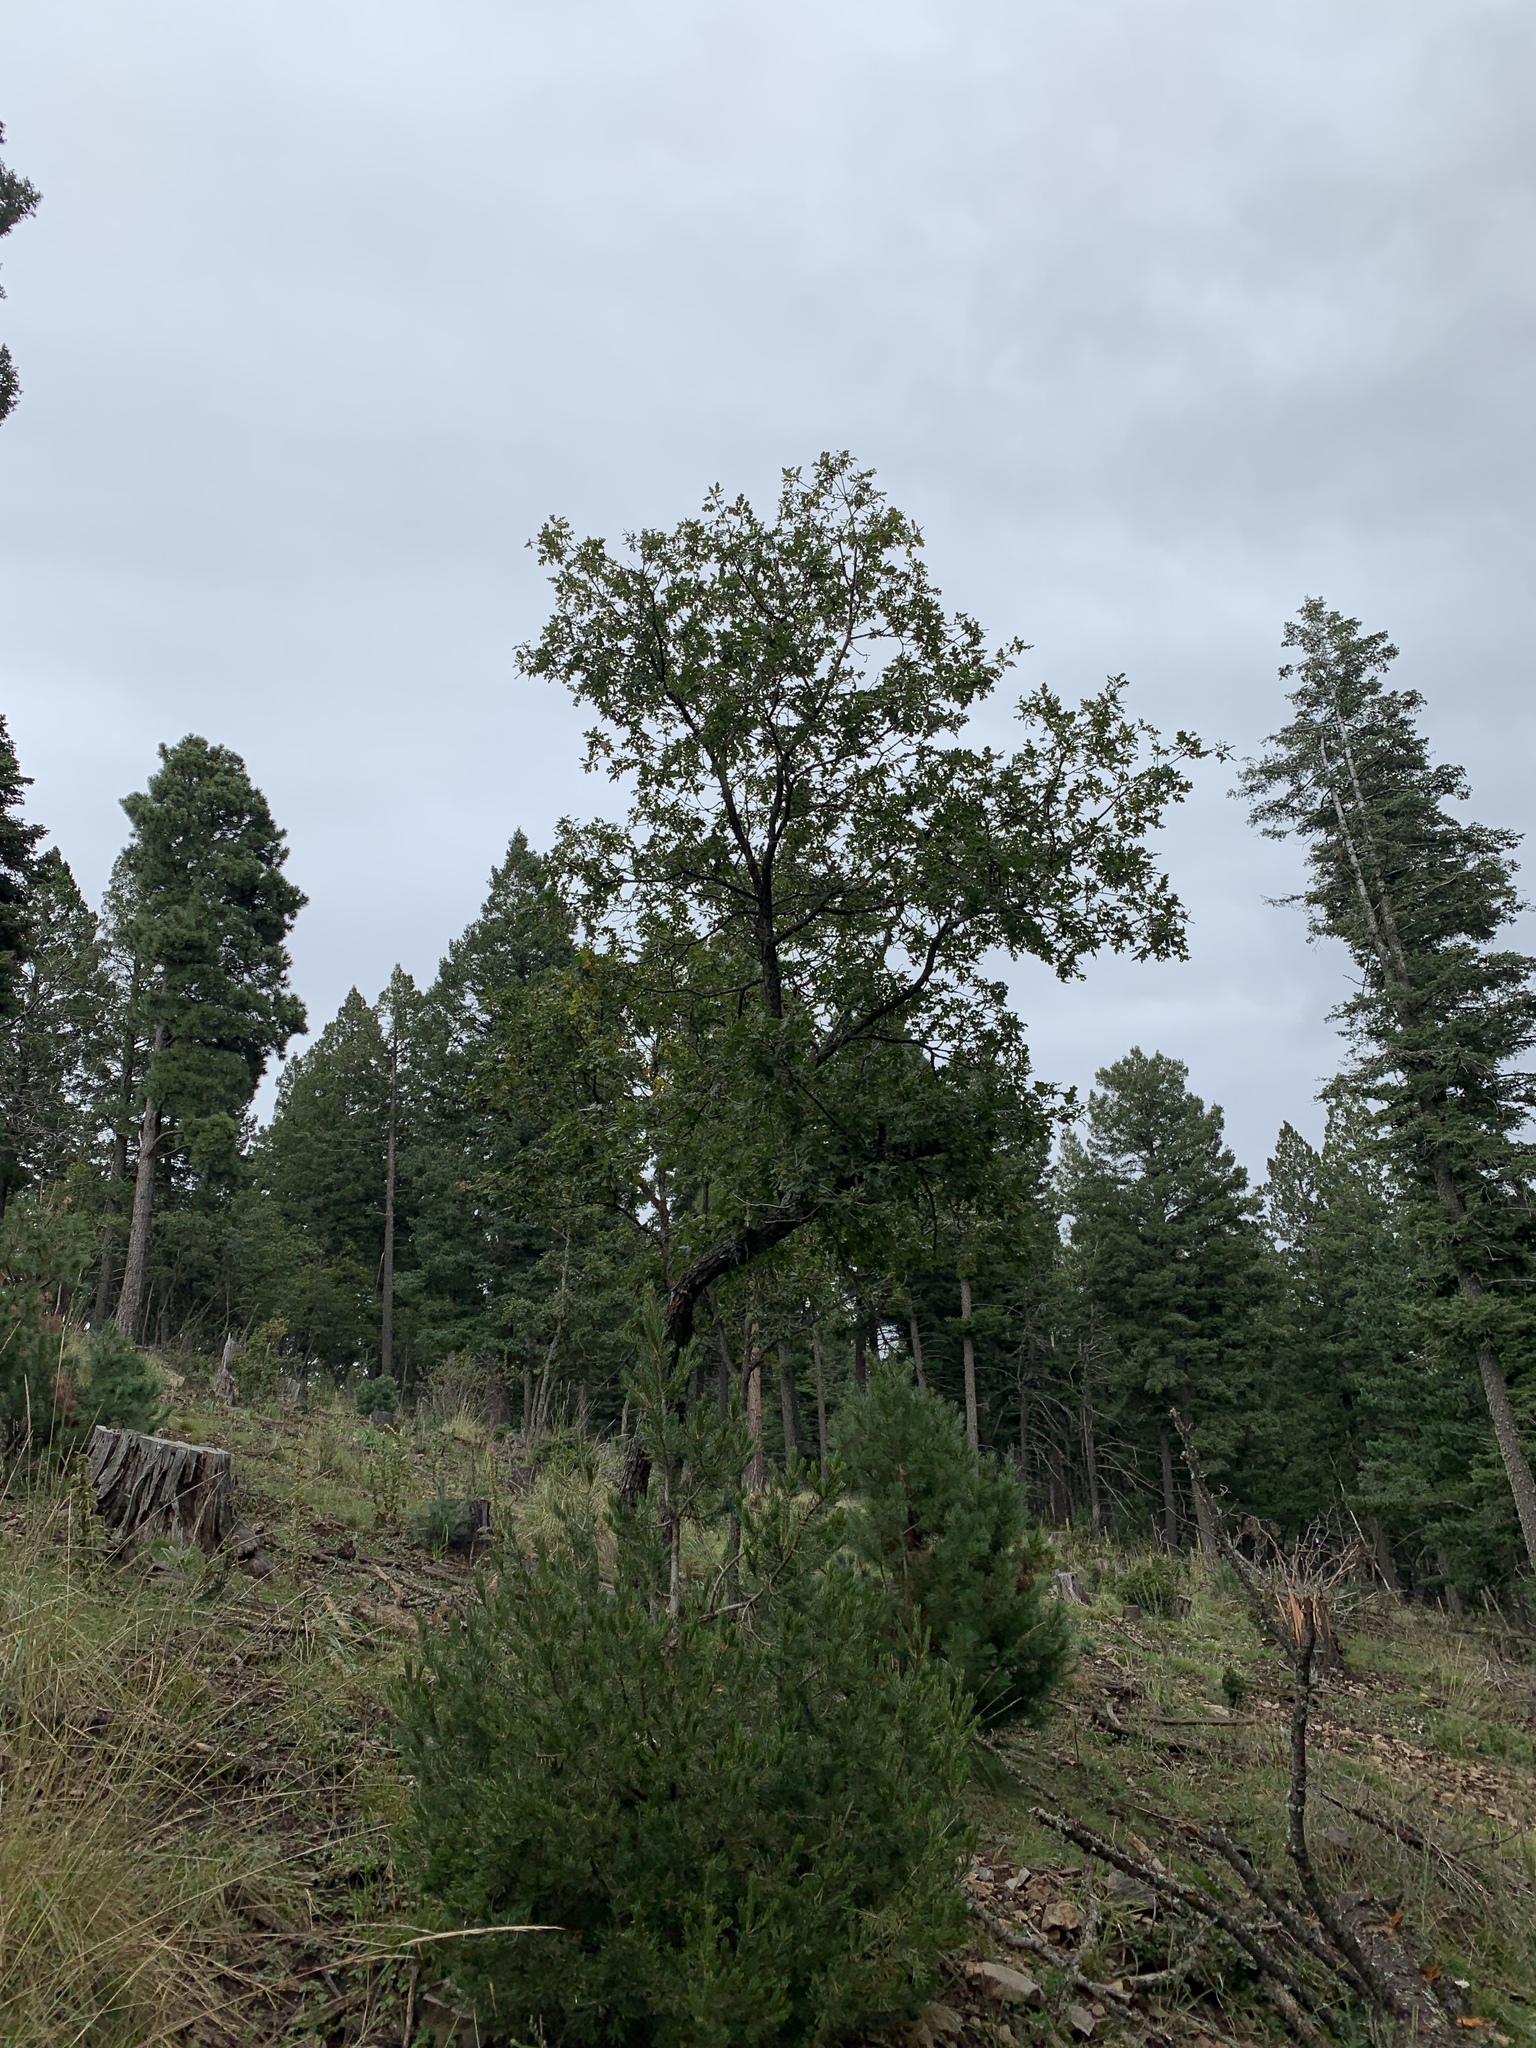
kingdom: Plantae
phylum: Tracheophyta
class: Magnoliopsida
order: Fagales
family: Fagaceae
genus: Quercus
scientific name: Quercus gambelii
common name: Gambel oak
